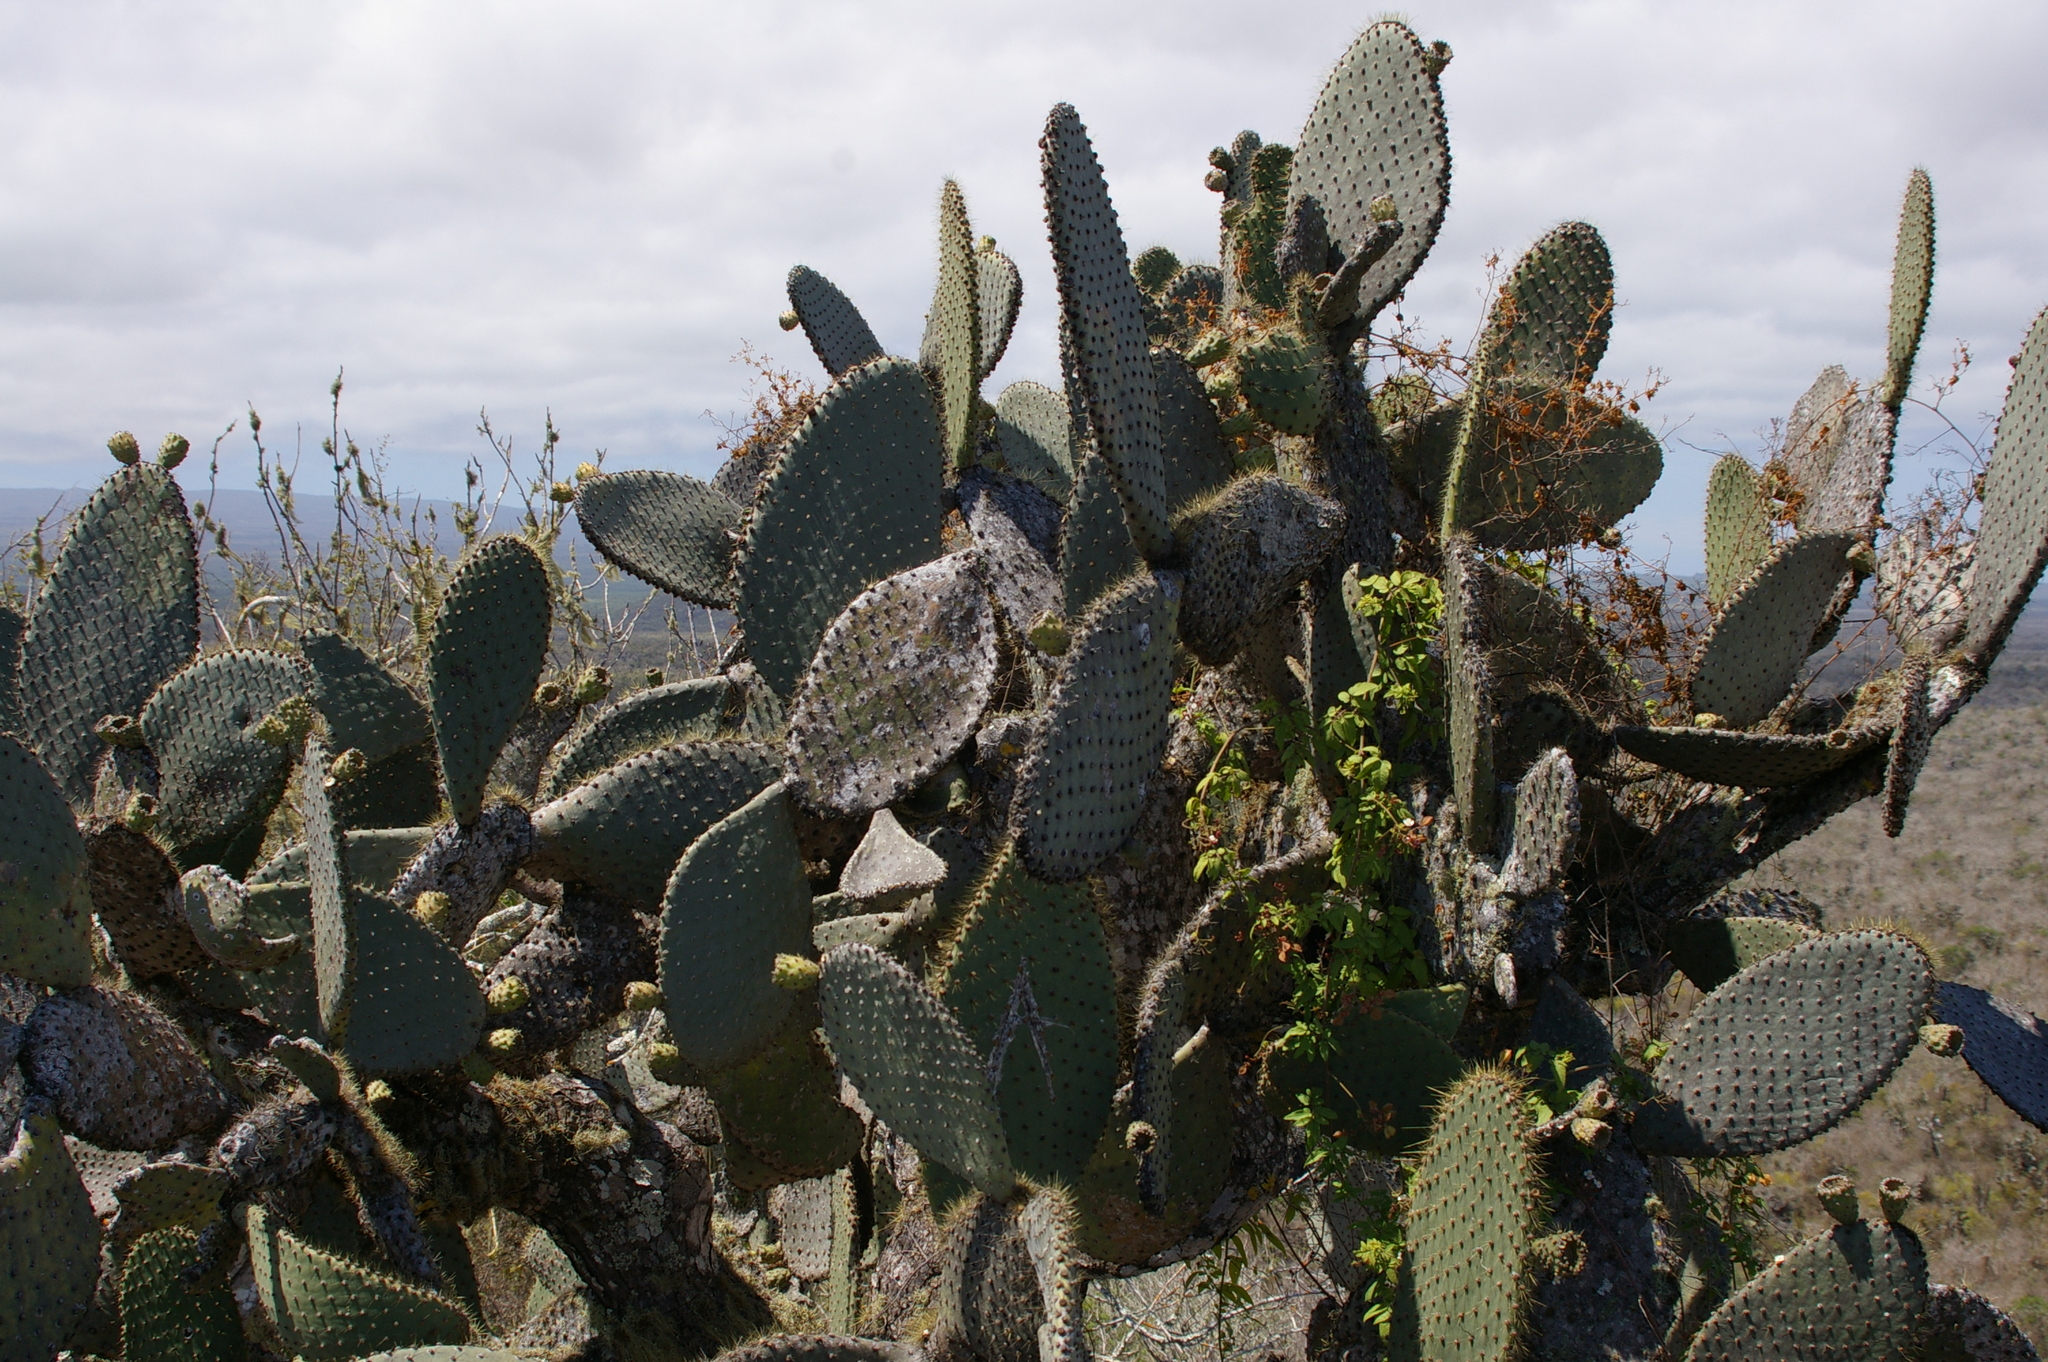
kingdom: Plantae
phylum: Tracheophyta
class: Magnoliopsida
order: Caryophyllales
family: Cactaceae
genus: Opuntia
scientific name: Opuntia galapageia
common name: Galápagos prickly pear
